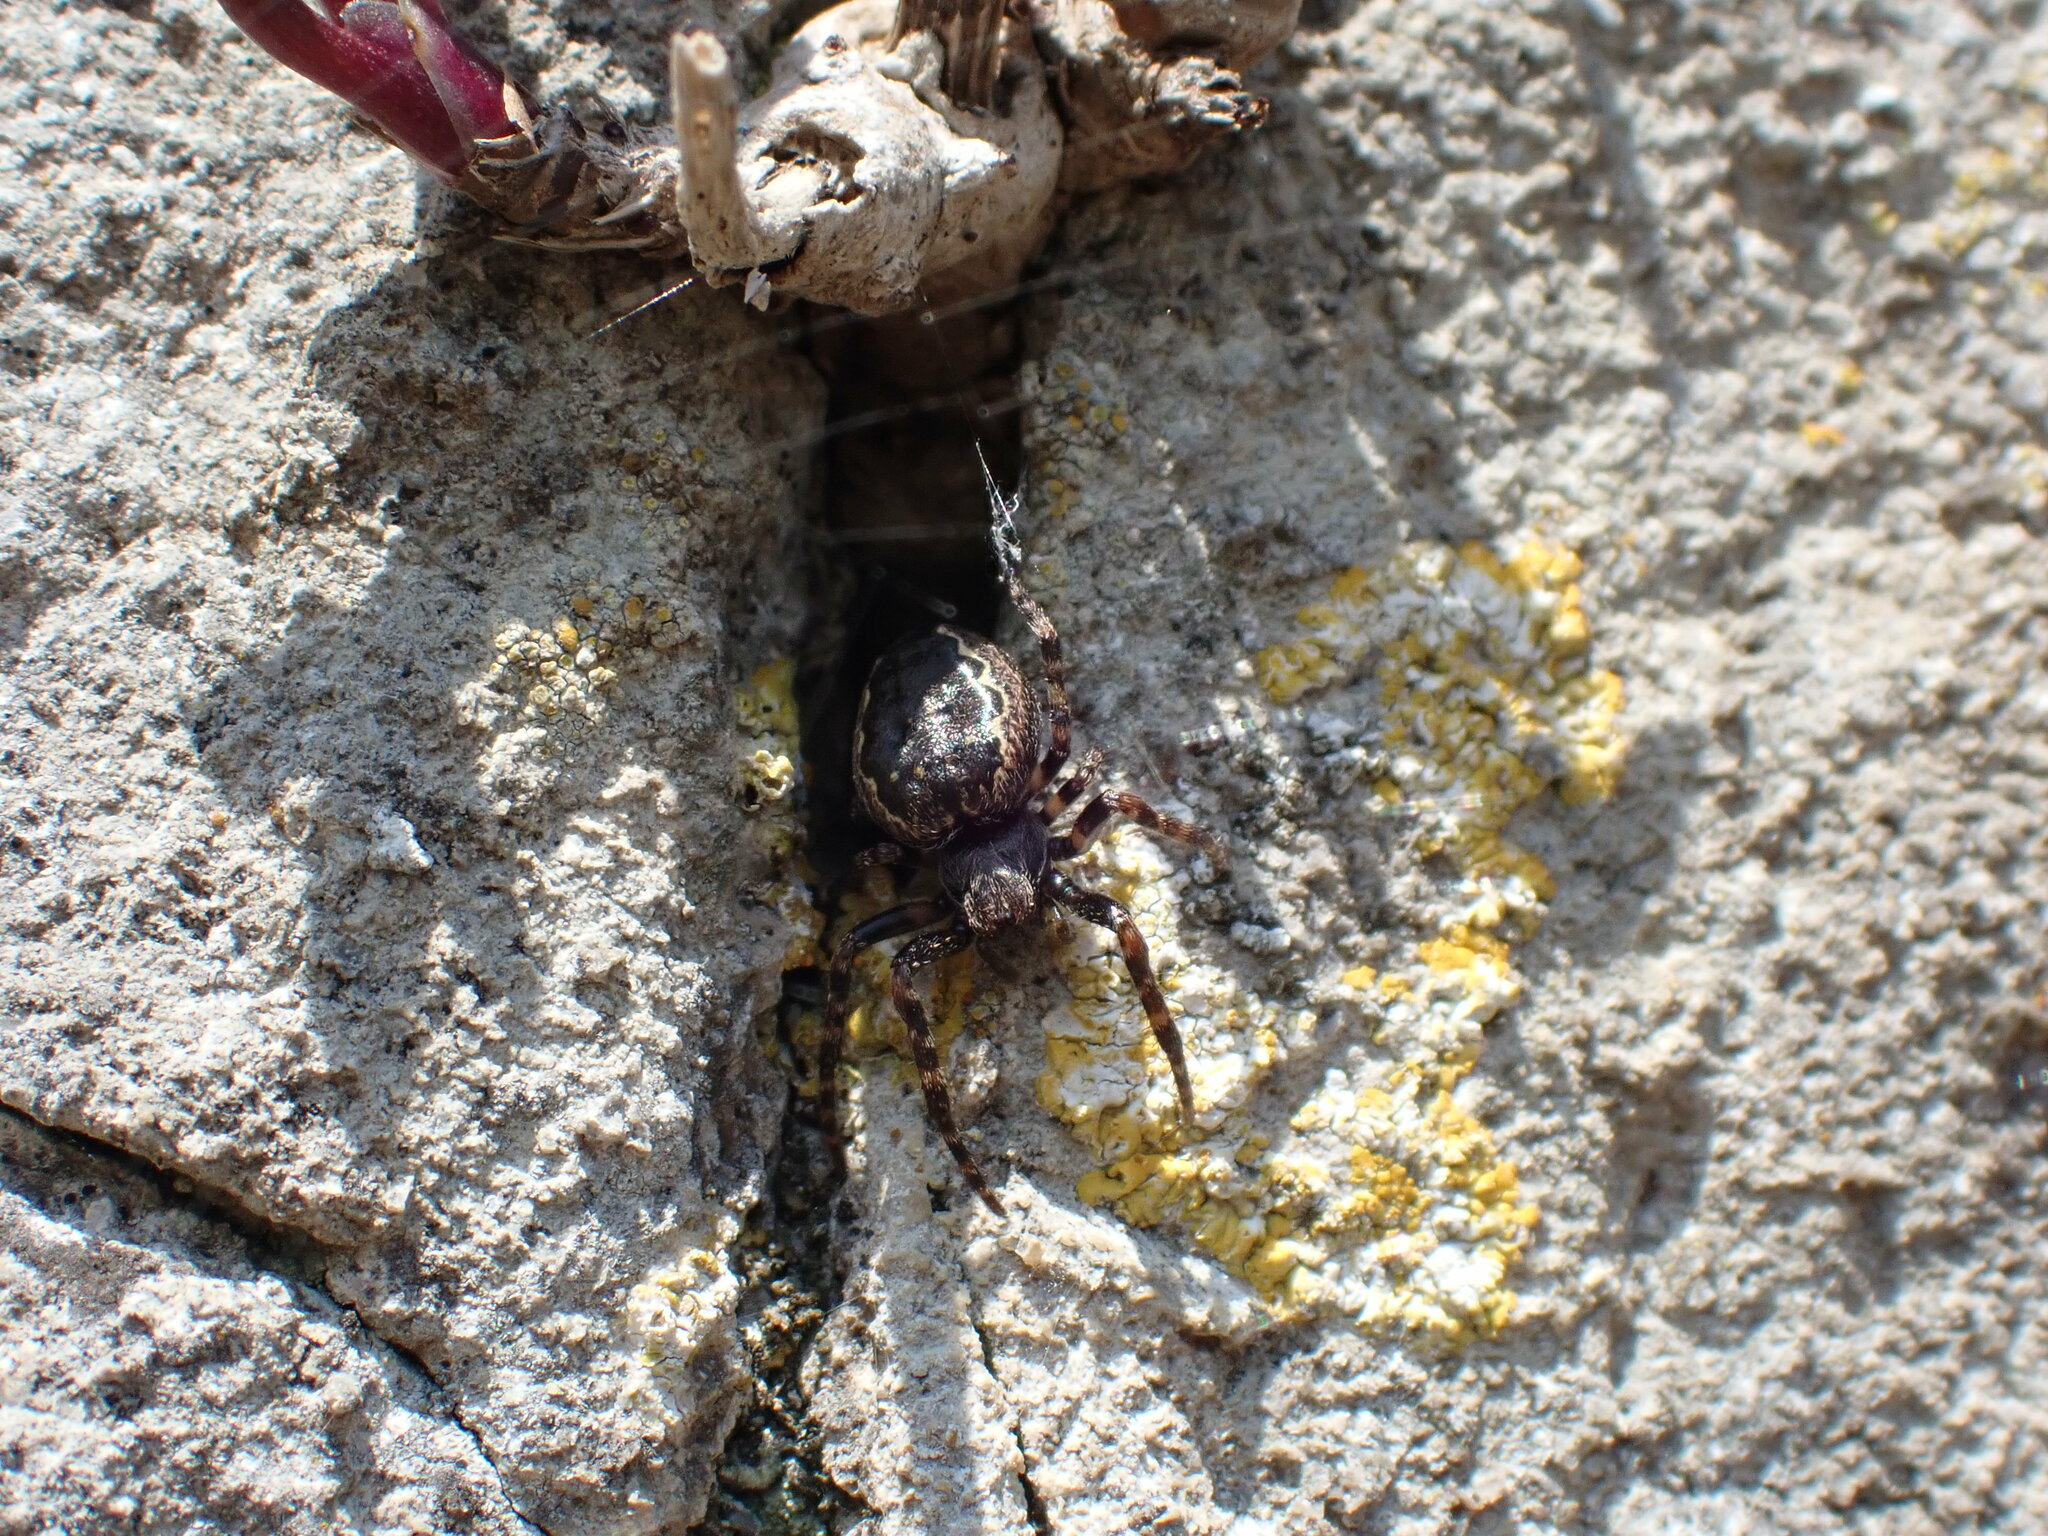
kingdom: Animalia
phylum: Arthropoda
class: Arachnida
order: Araneae
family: Araneidae
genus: Nuctenea
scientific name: Nuctenea umbratica
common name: Toad spider
